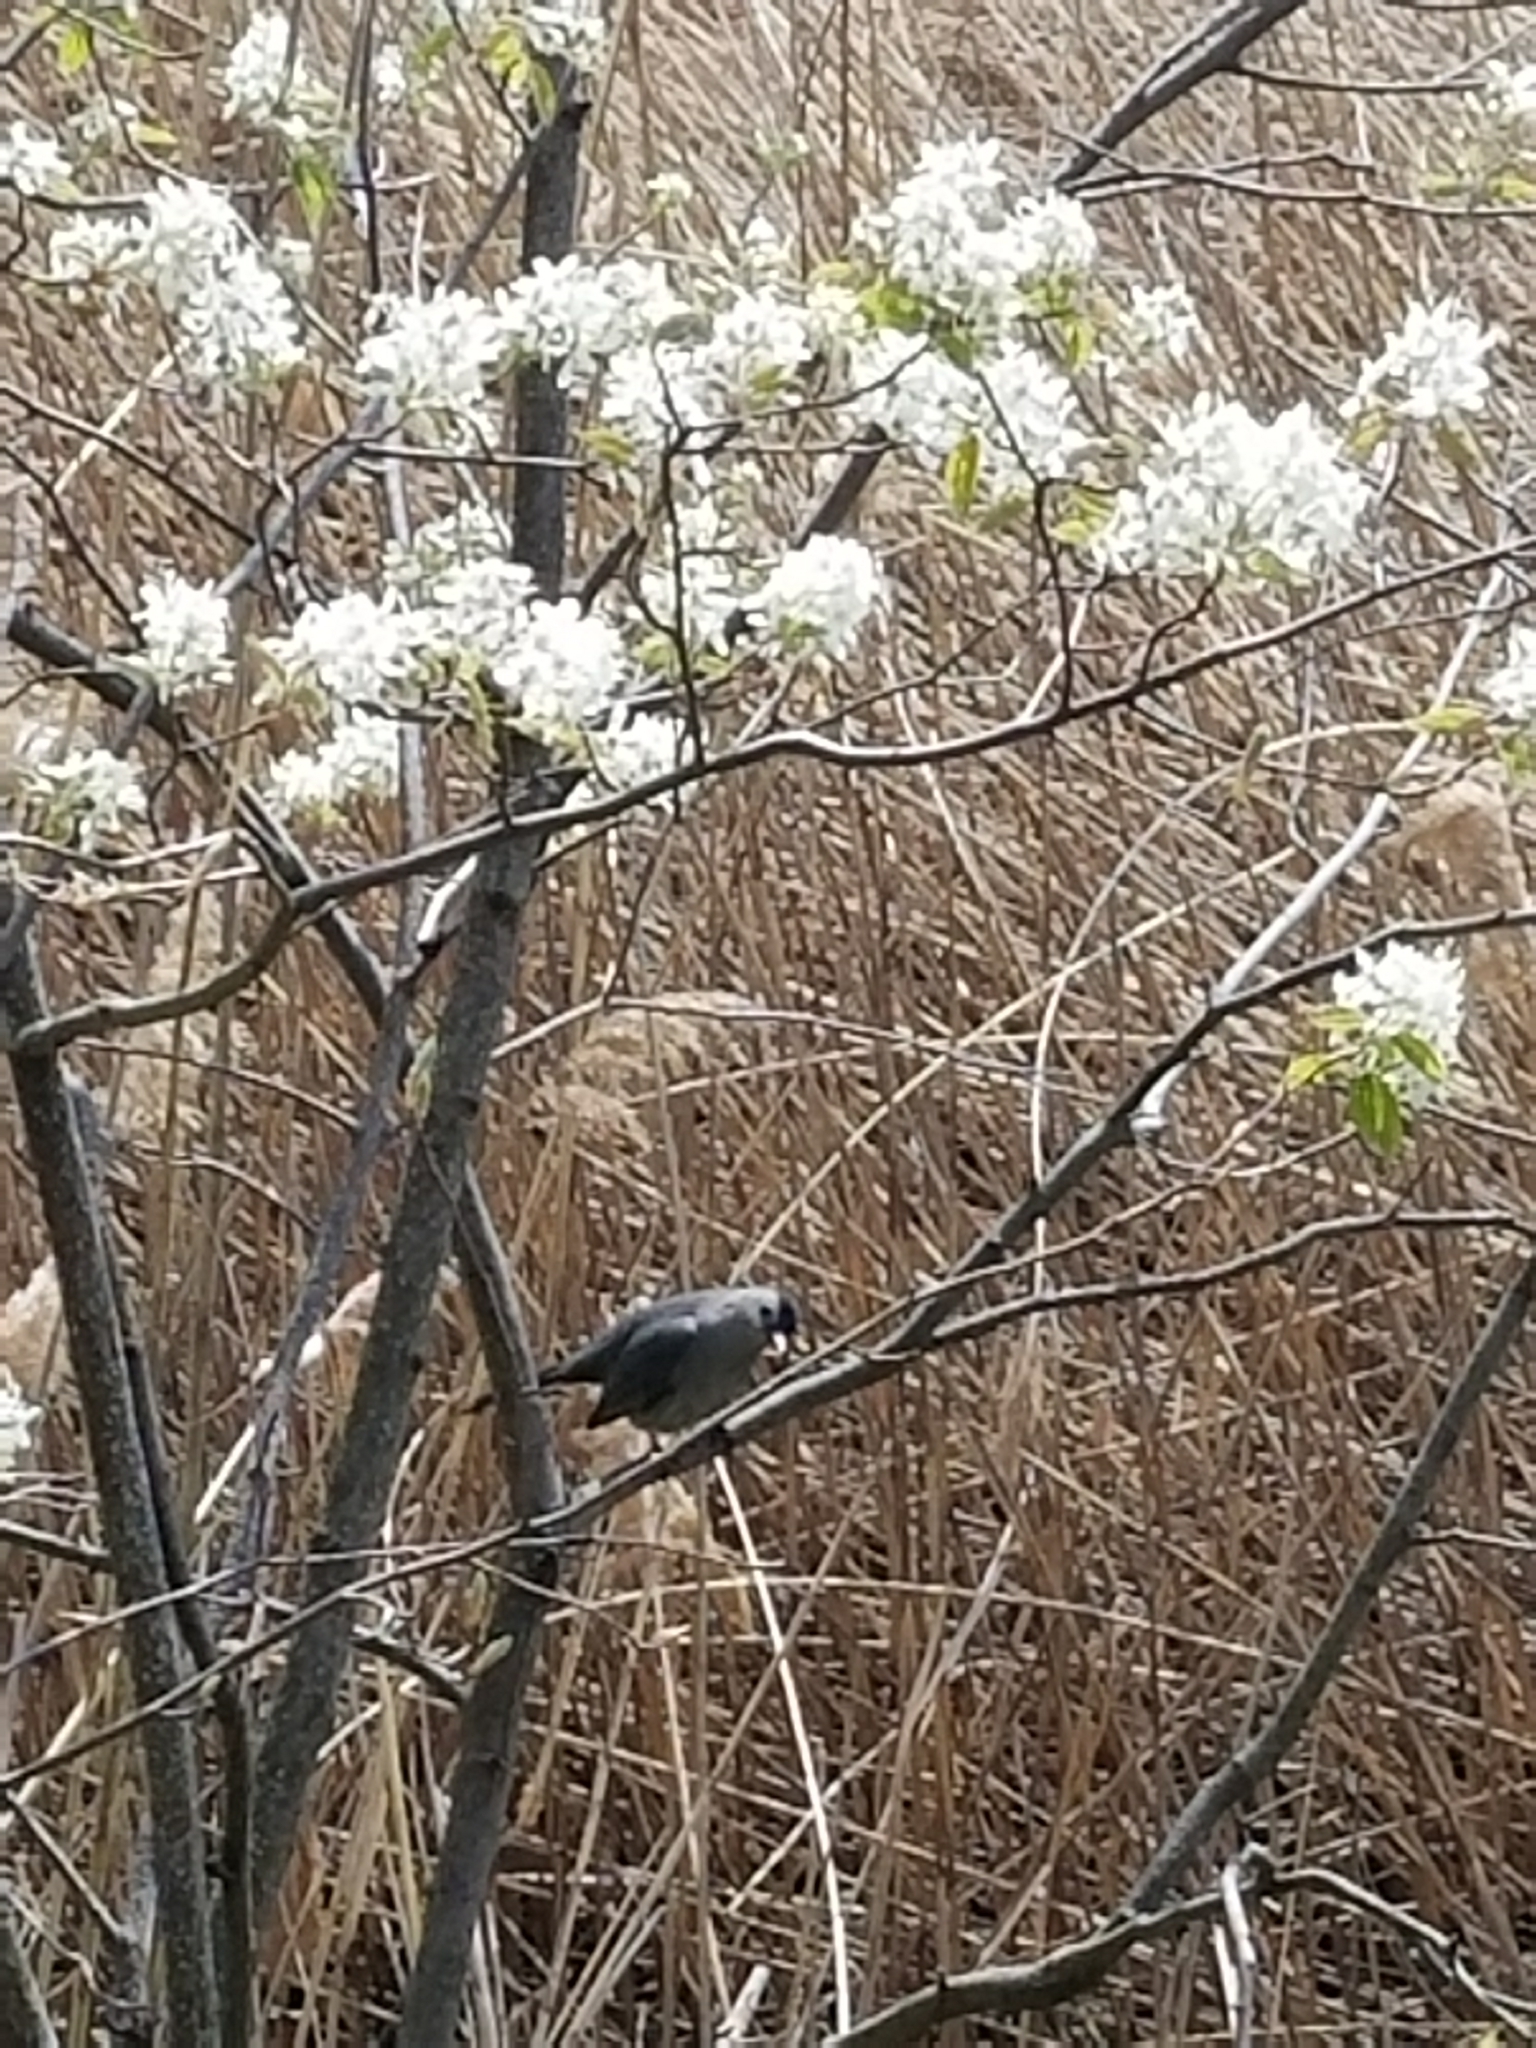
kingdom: Animalia
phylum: Chordata
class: Aves
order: Passeriformes
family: Mimidae
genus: Dumetella
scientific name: Dumetella carolinensis
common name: Gray catbird
